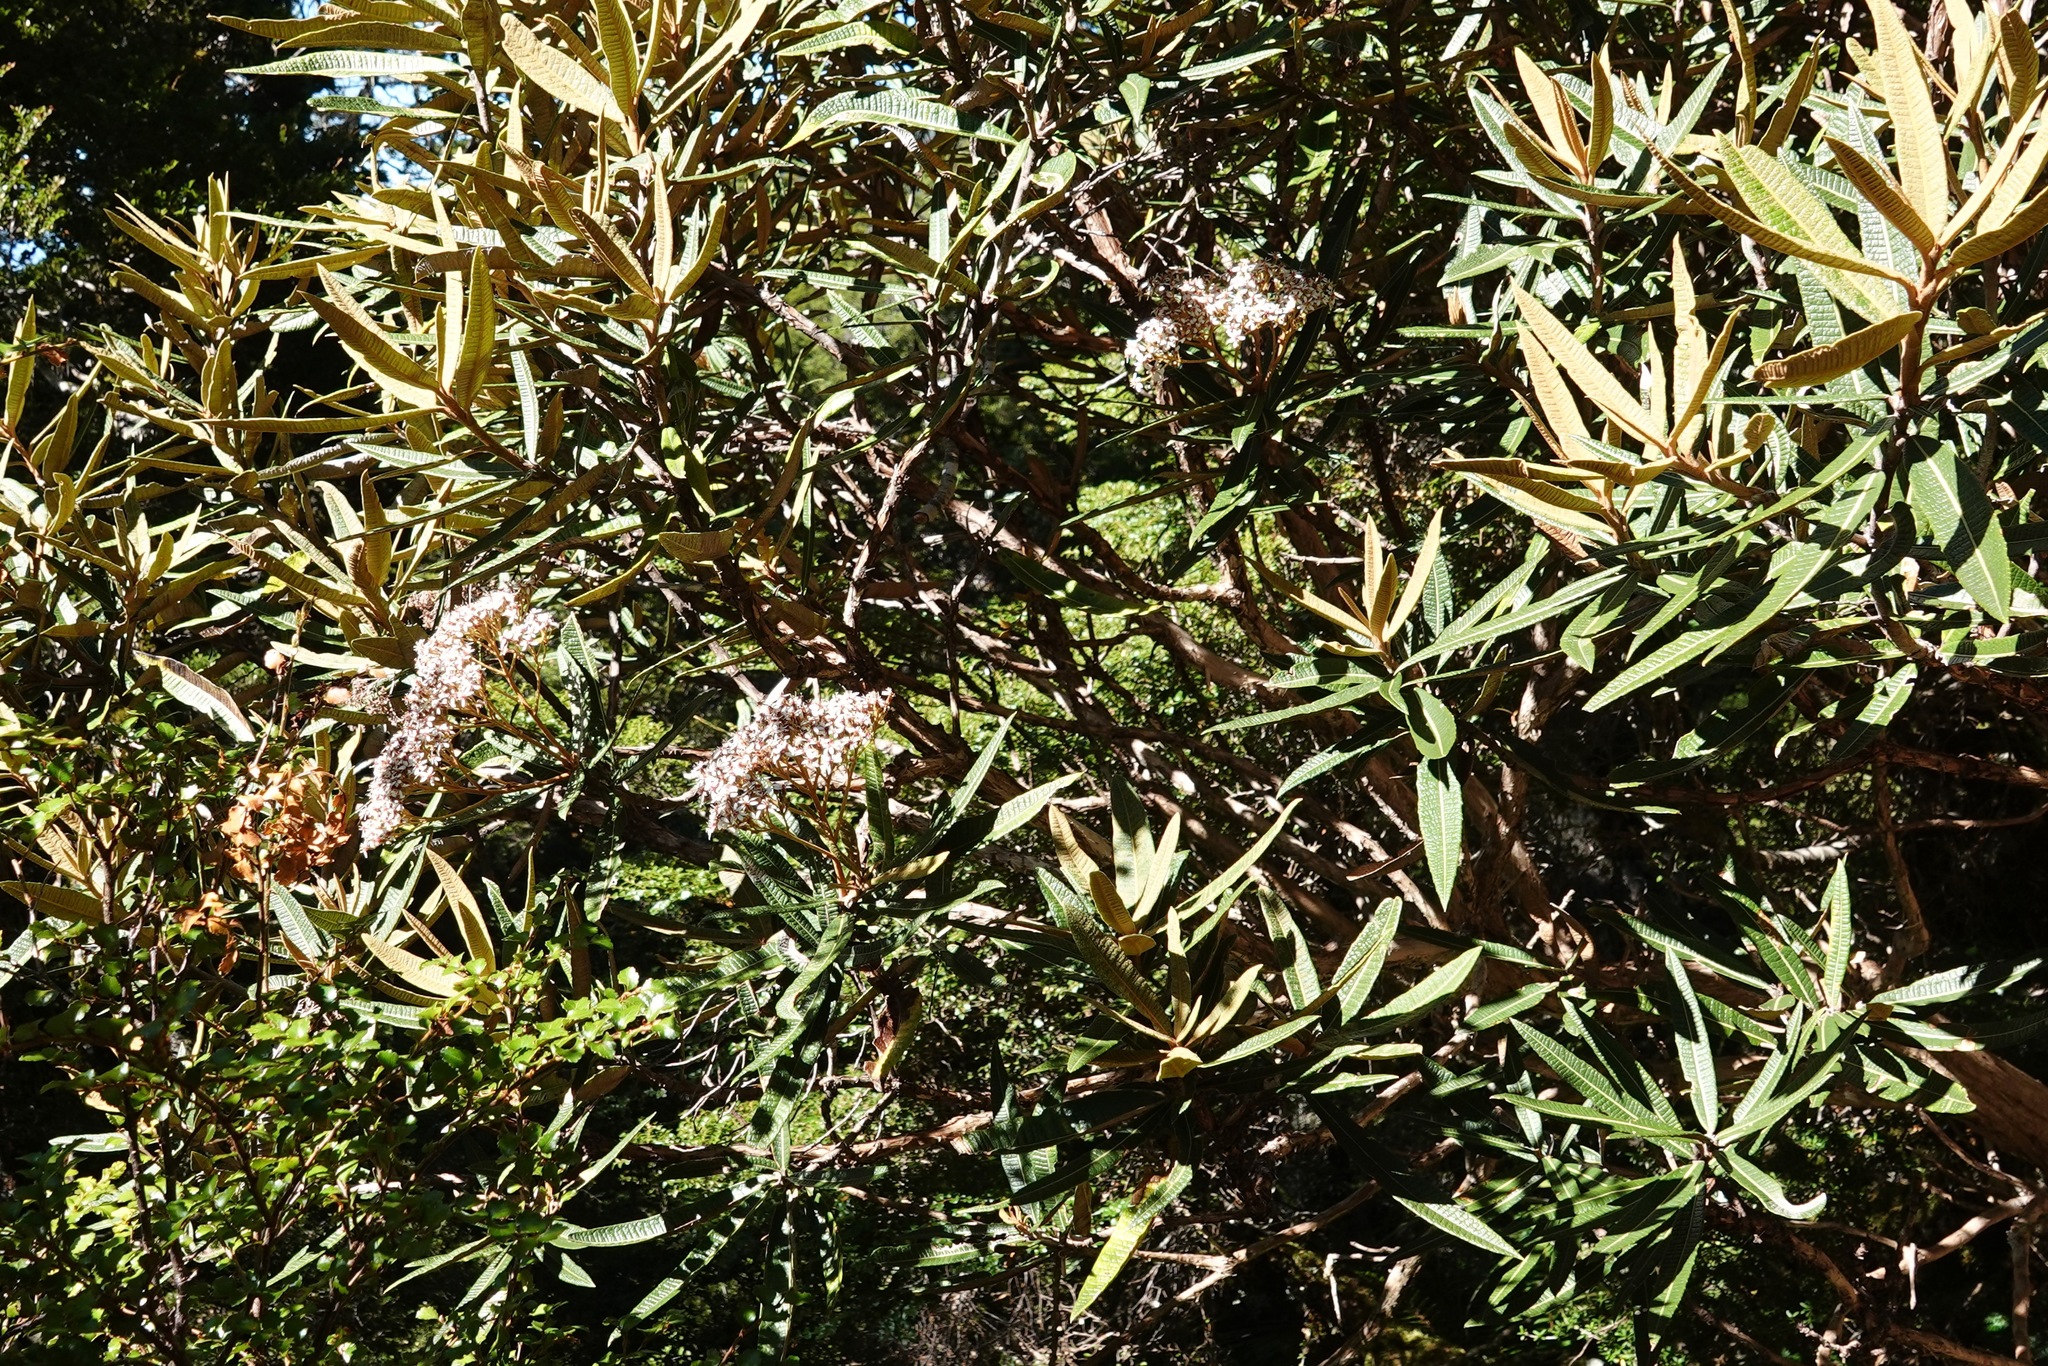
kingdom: Plantae
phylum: Tracheophyta
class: Magnoliopsida
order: Asterales
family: Asteraceae
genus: Olearia
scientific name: Olearia lacunosa
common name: Lancewood tree daisy
